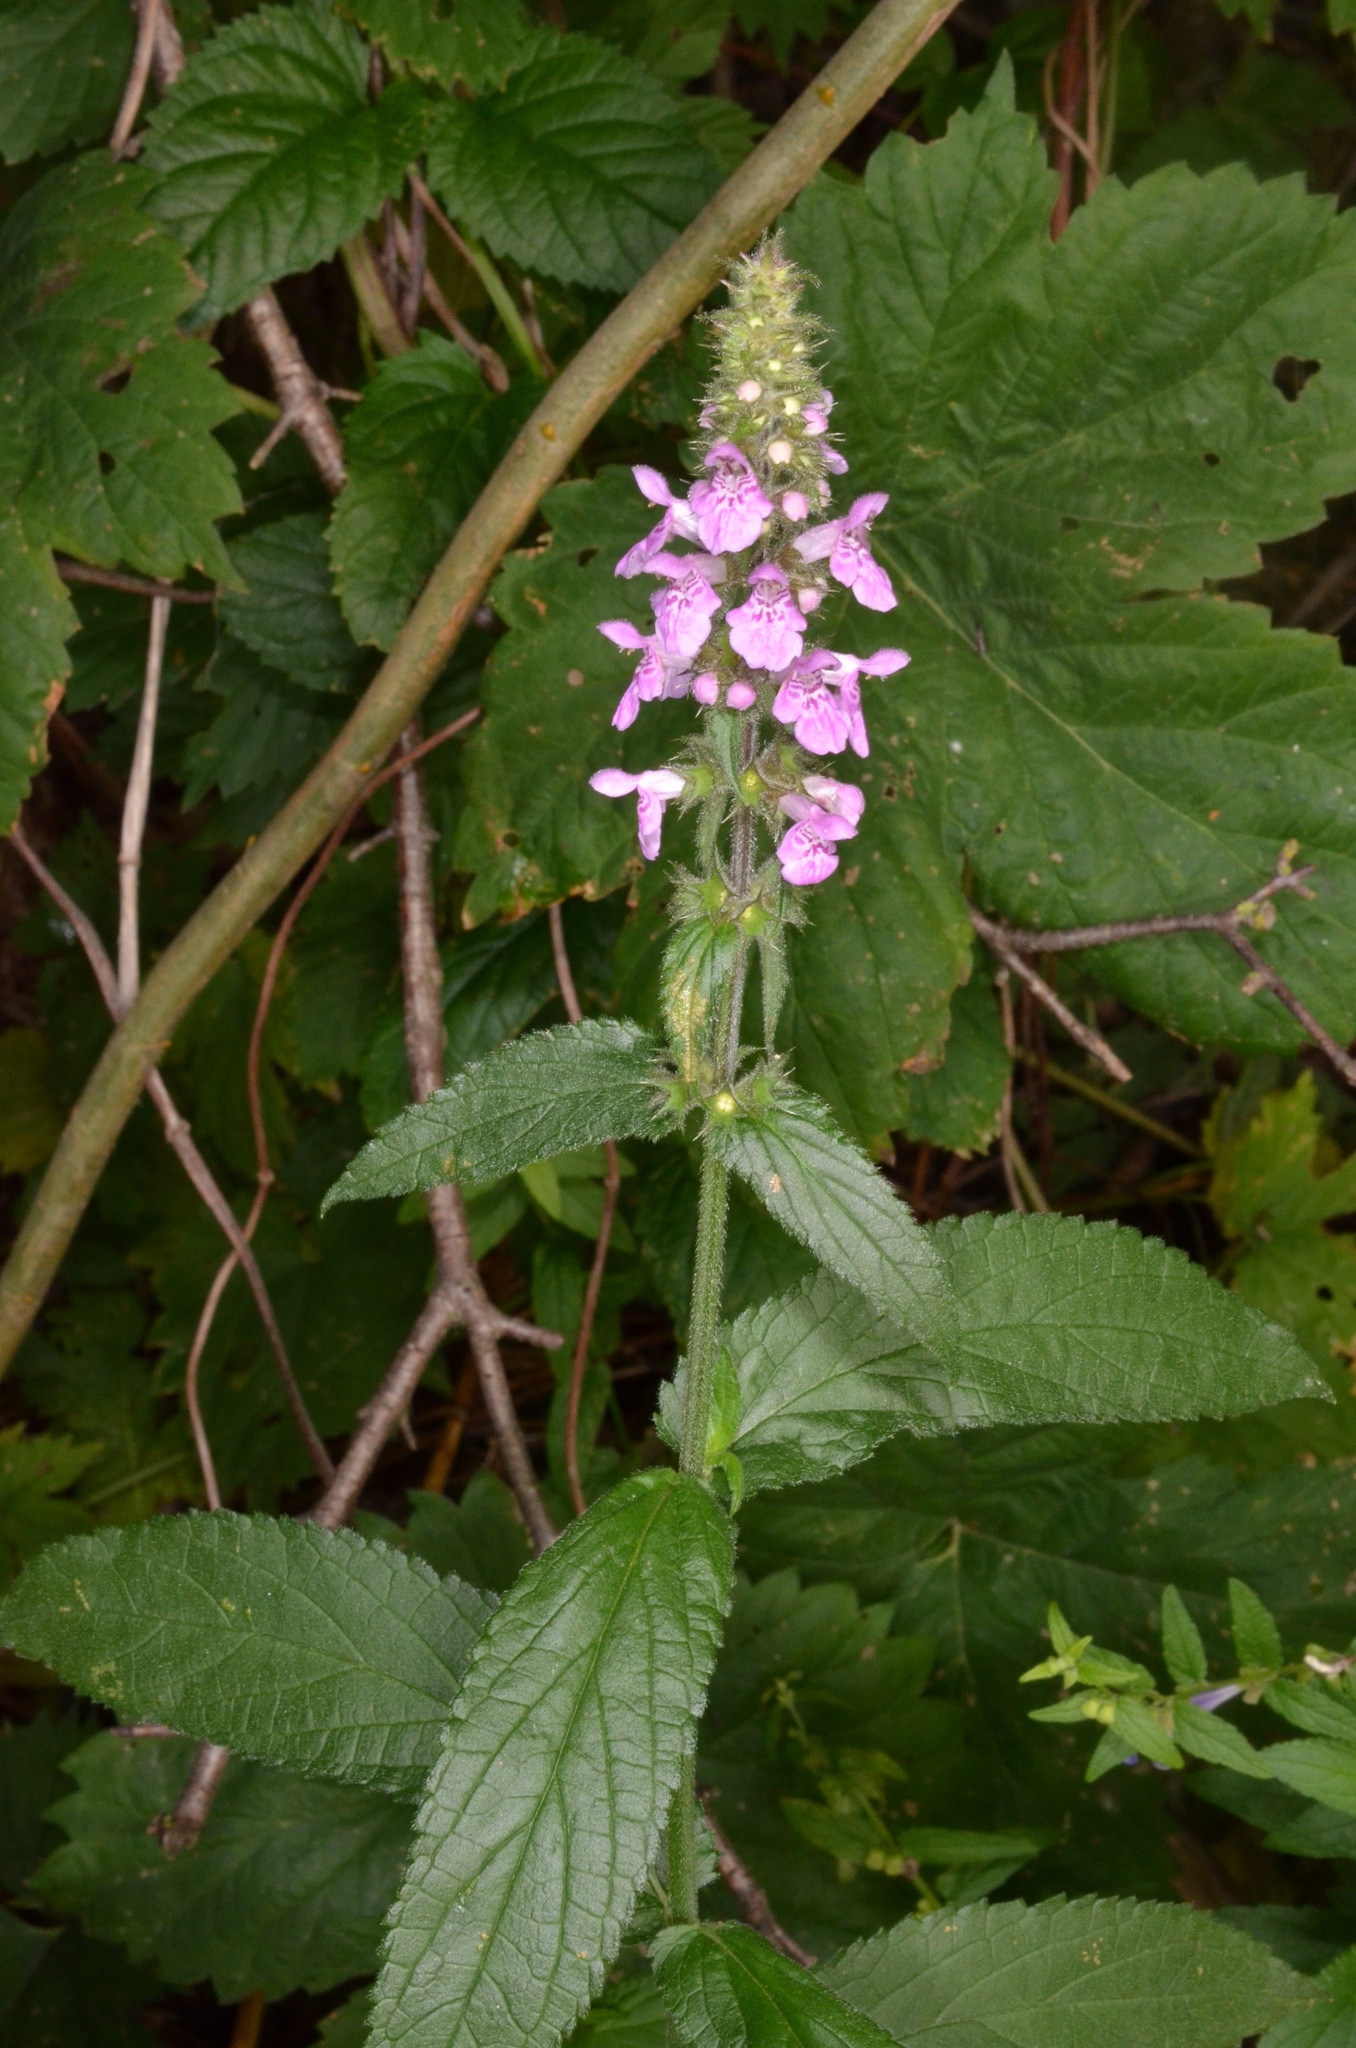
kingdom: Plantae
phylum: Tracheophyta
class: Magnoliopsida
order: Lamiales
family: Lamiaceae
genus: Stachys
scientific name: Stachys palustris
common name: Marsh woundwort
